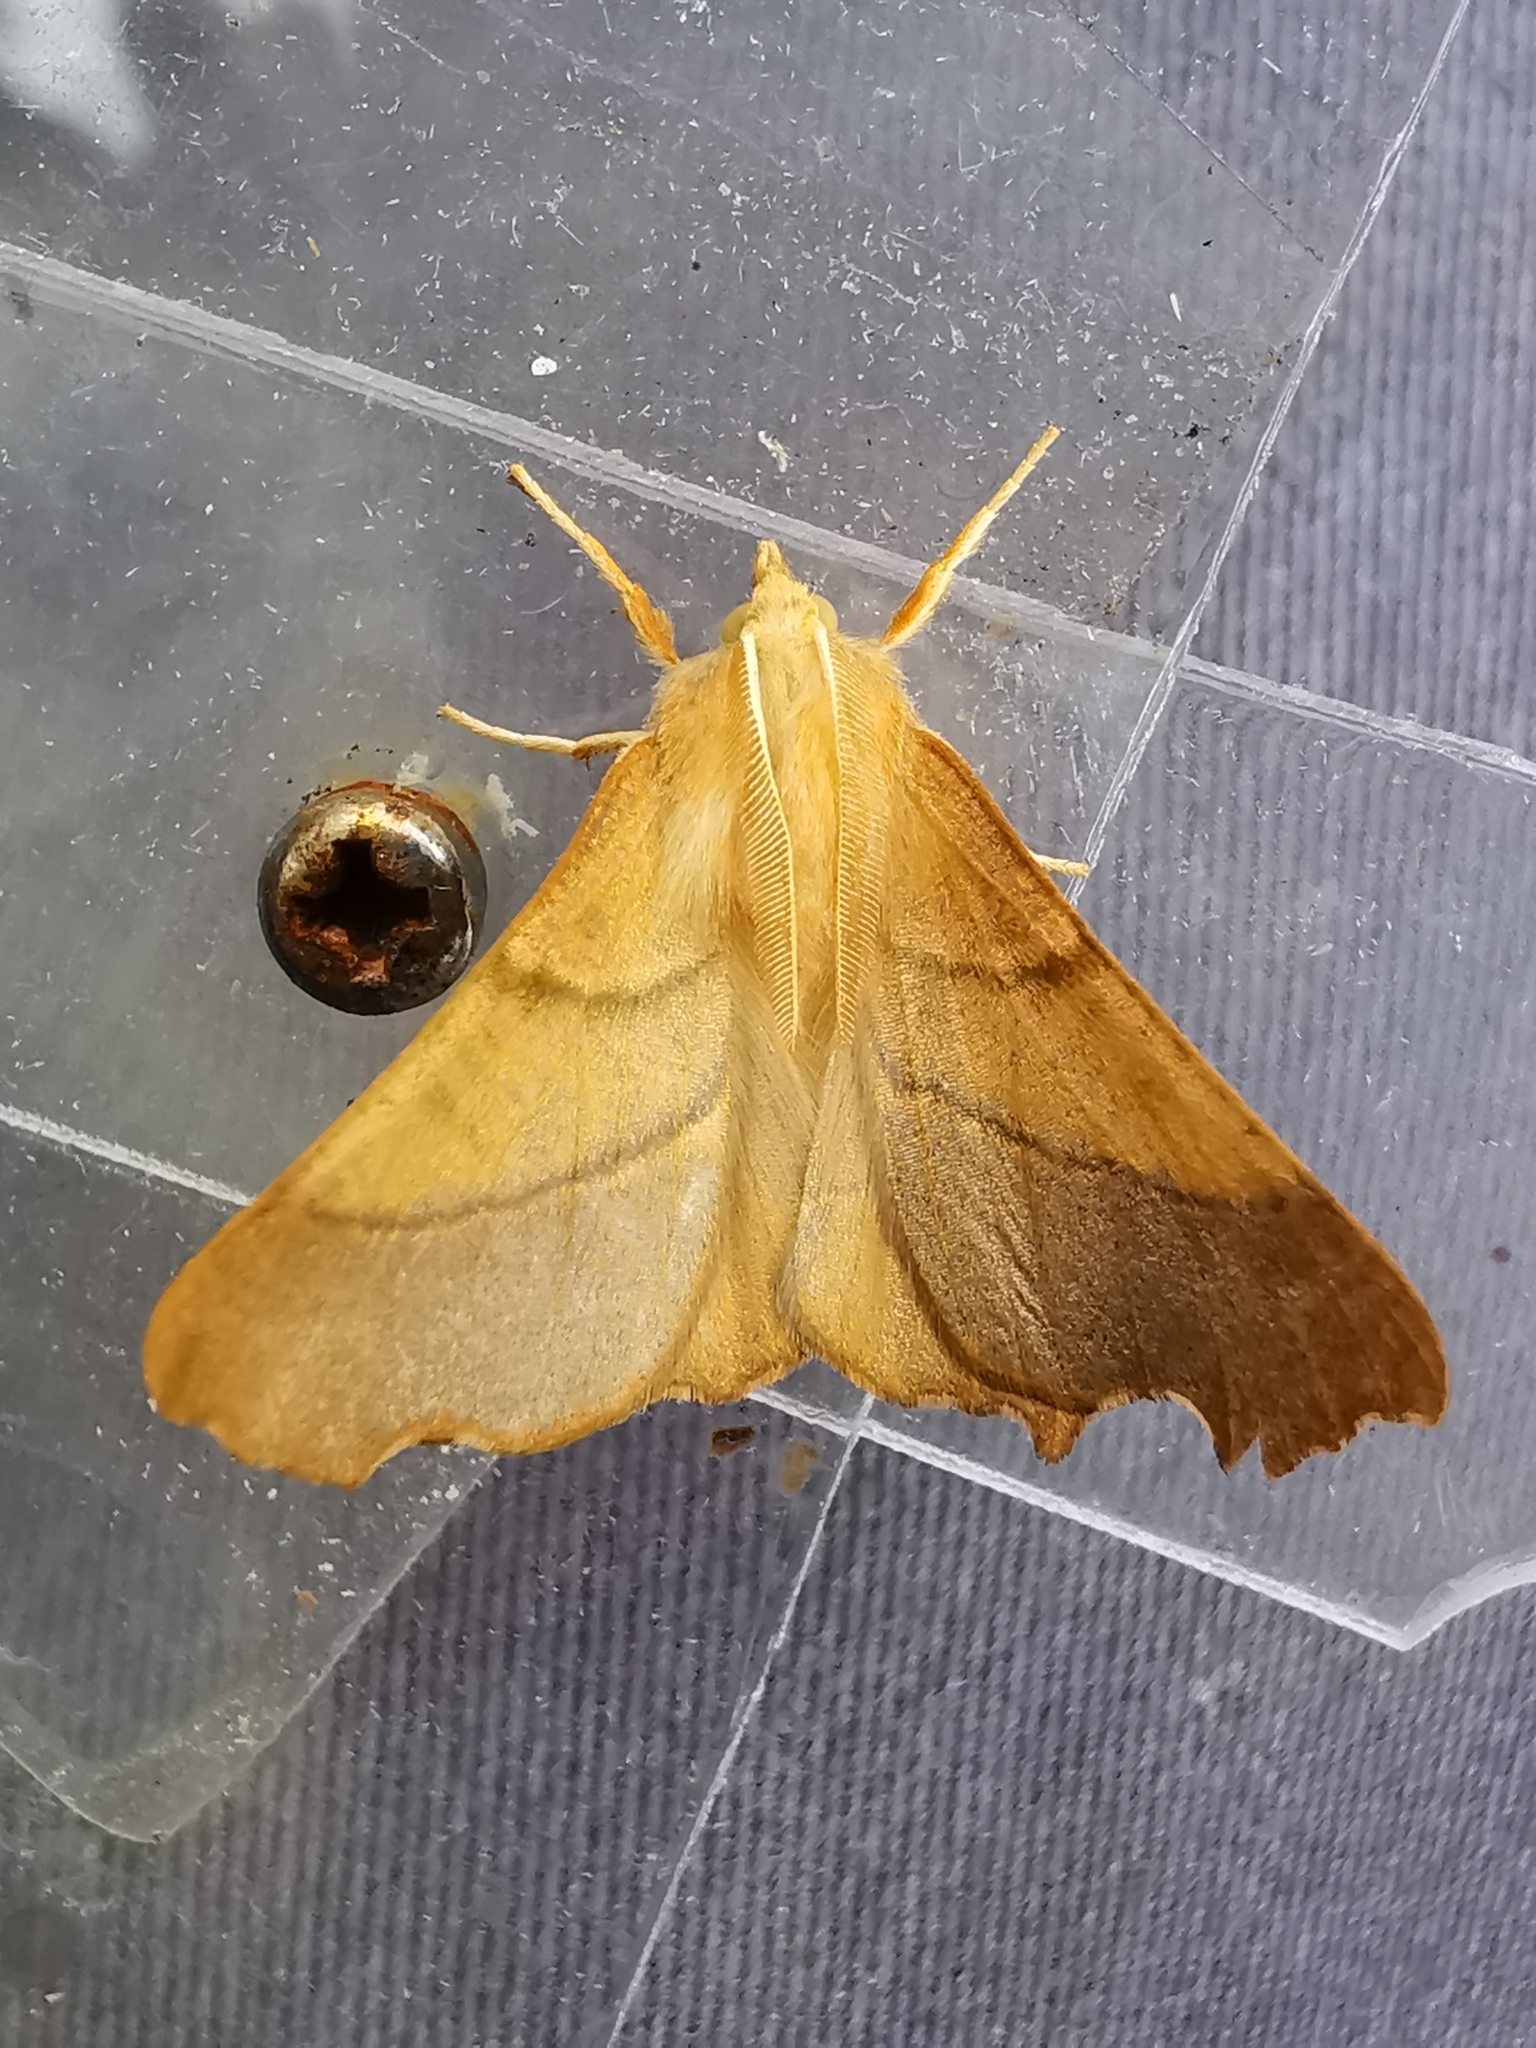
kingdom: Animalia
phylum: Arthropoda
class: Insecta
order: Lepidoptera
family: Geometridae
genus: Ennomos
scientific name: Ennomos fuscantaria
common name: Dusky thorn
